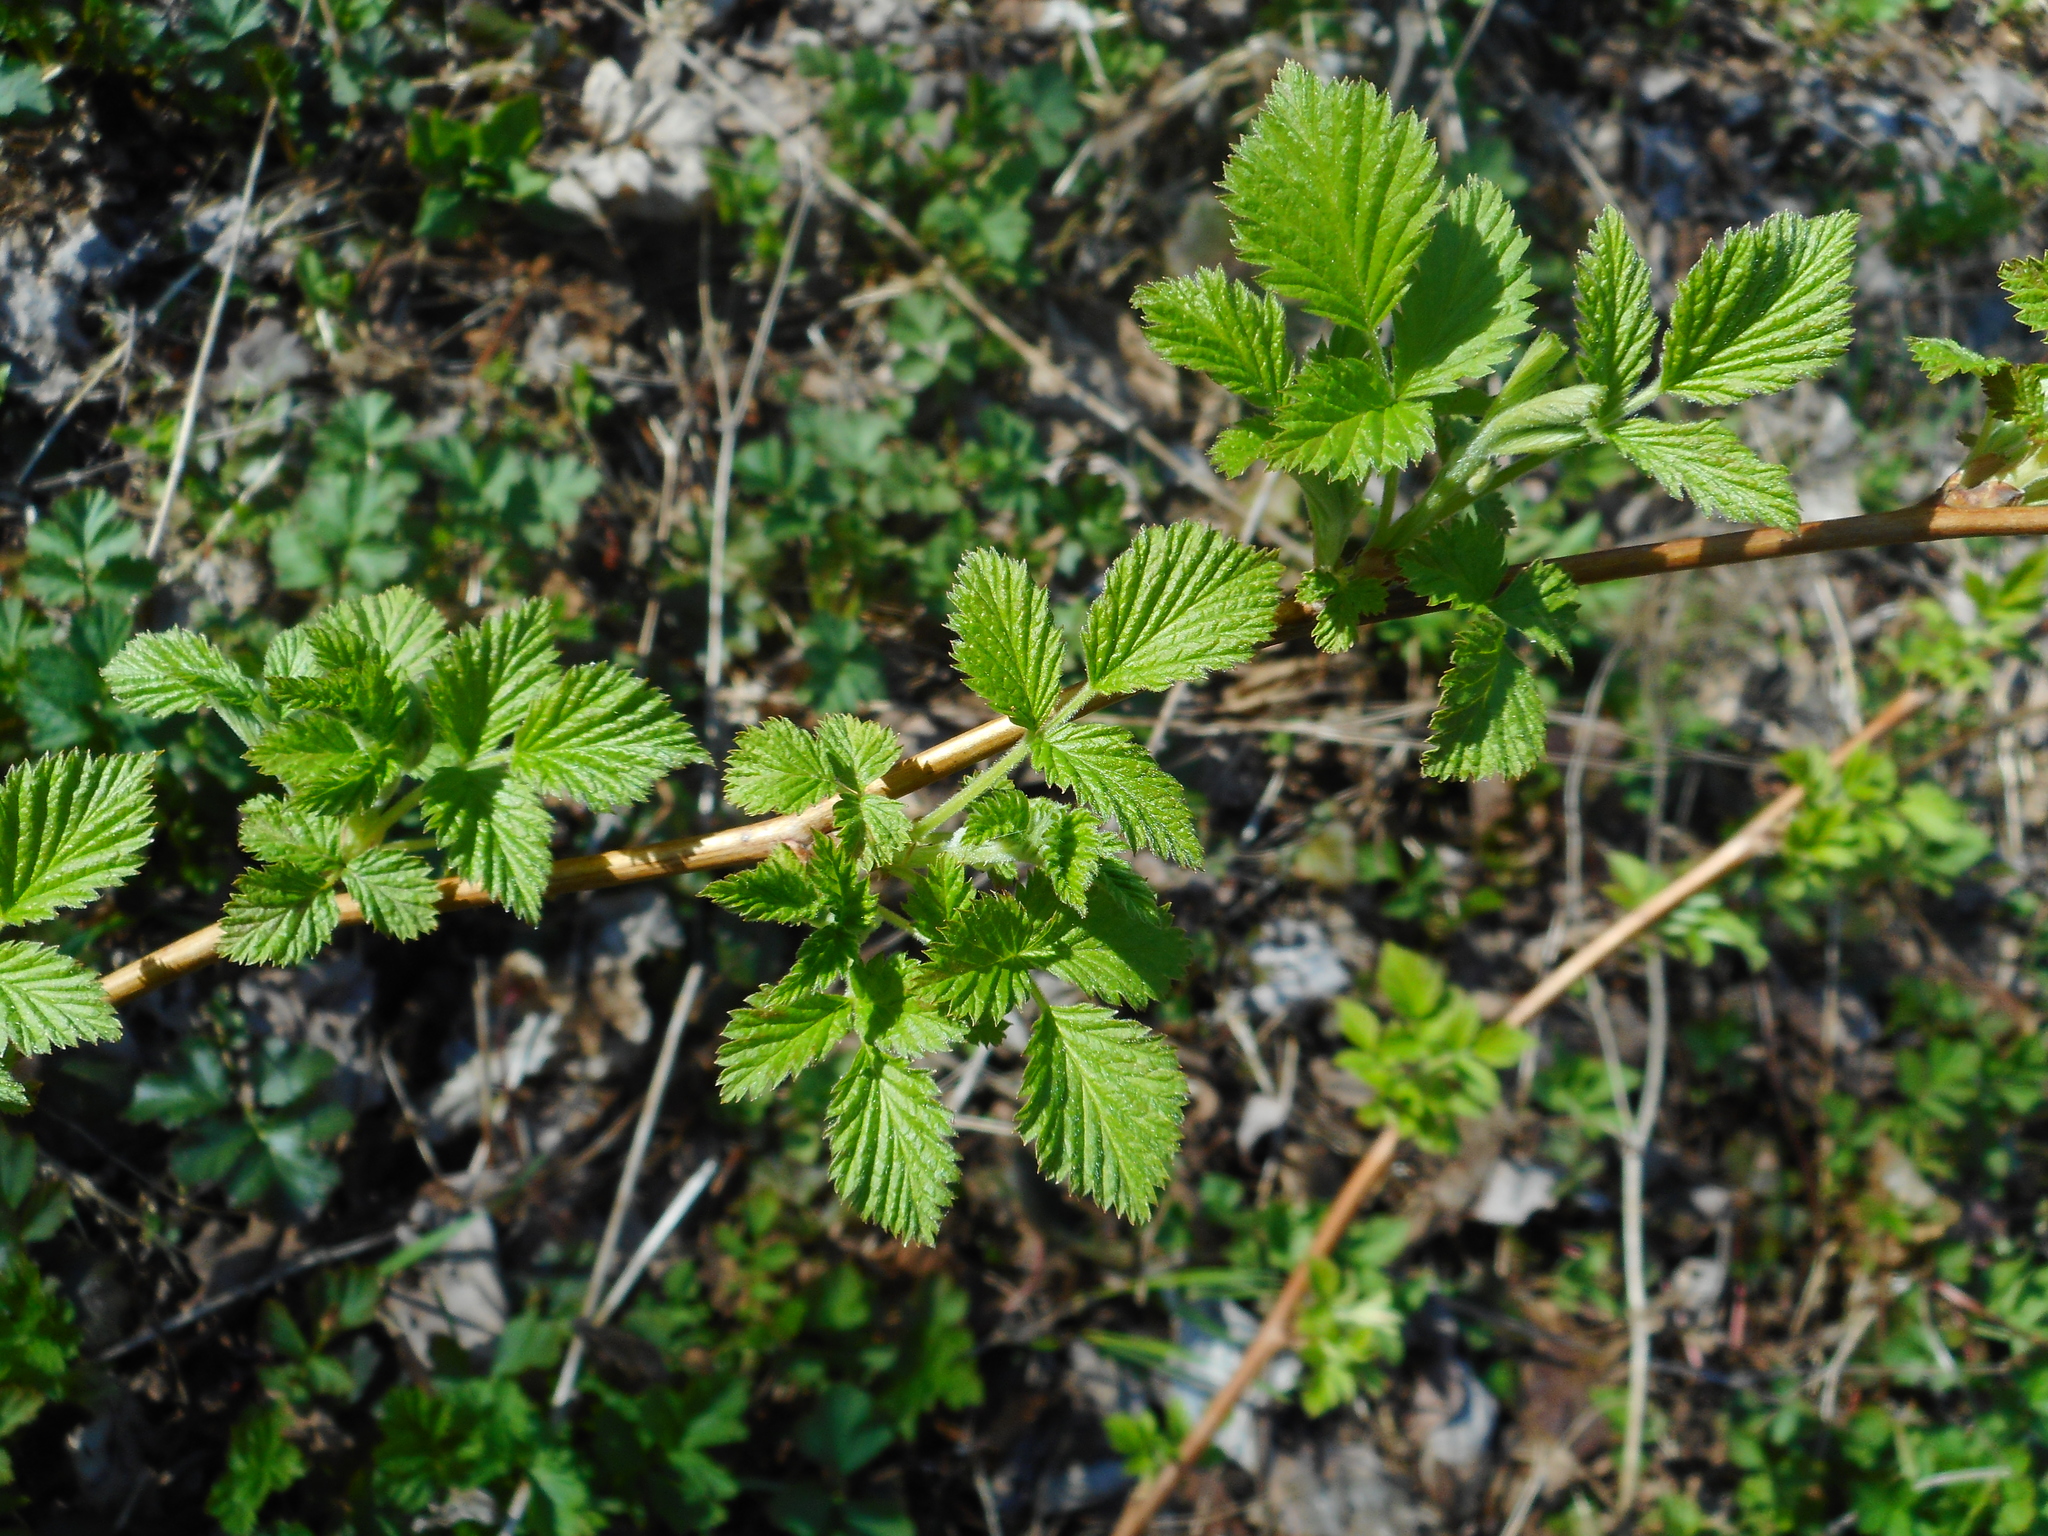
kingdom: Plantae
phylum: Tracheophyta
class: Magnoliopsida
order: Rosales
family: Rosaceae
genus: Rubus
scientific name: Rubus idaeus
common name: Raspberry
